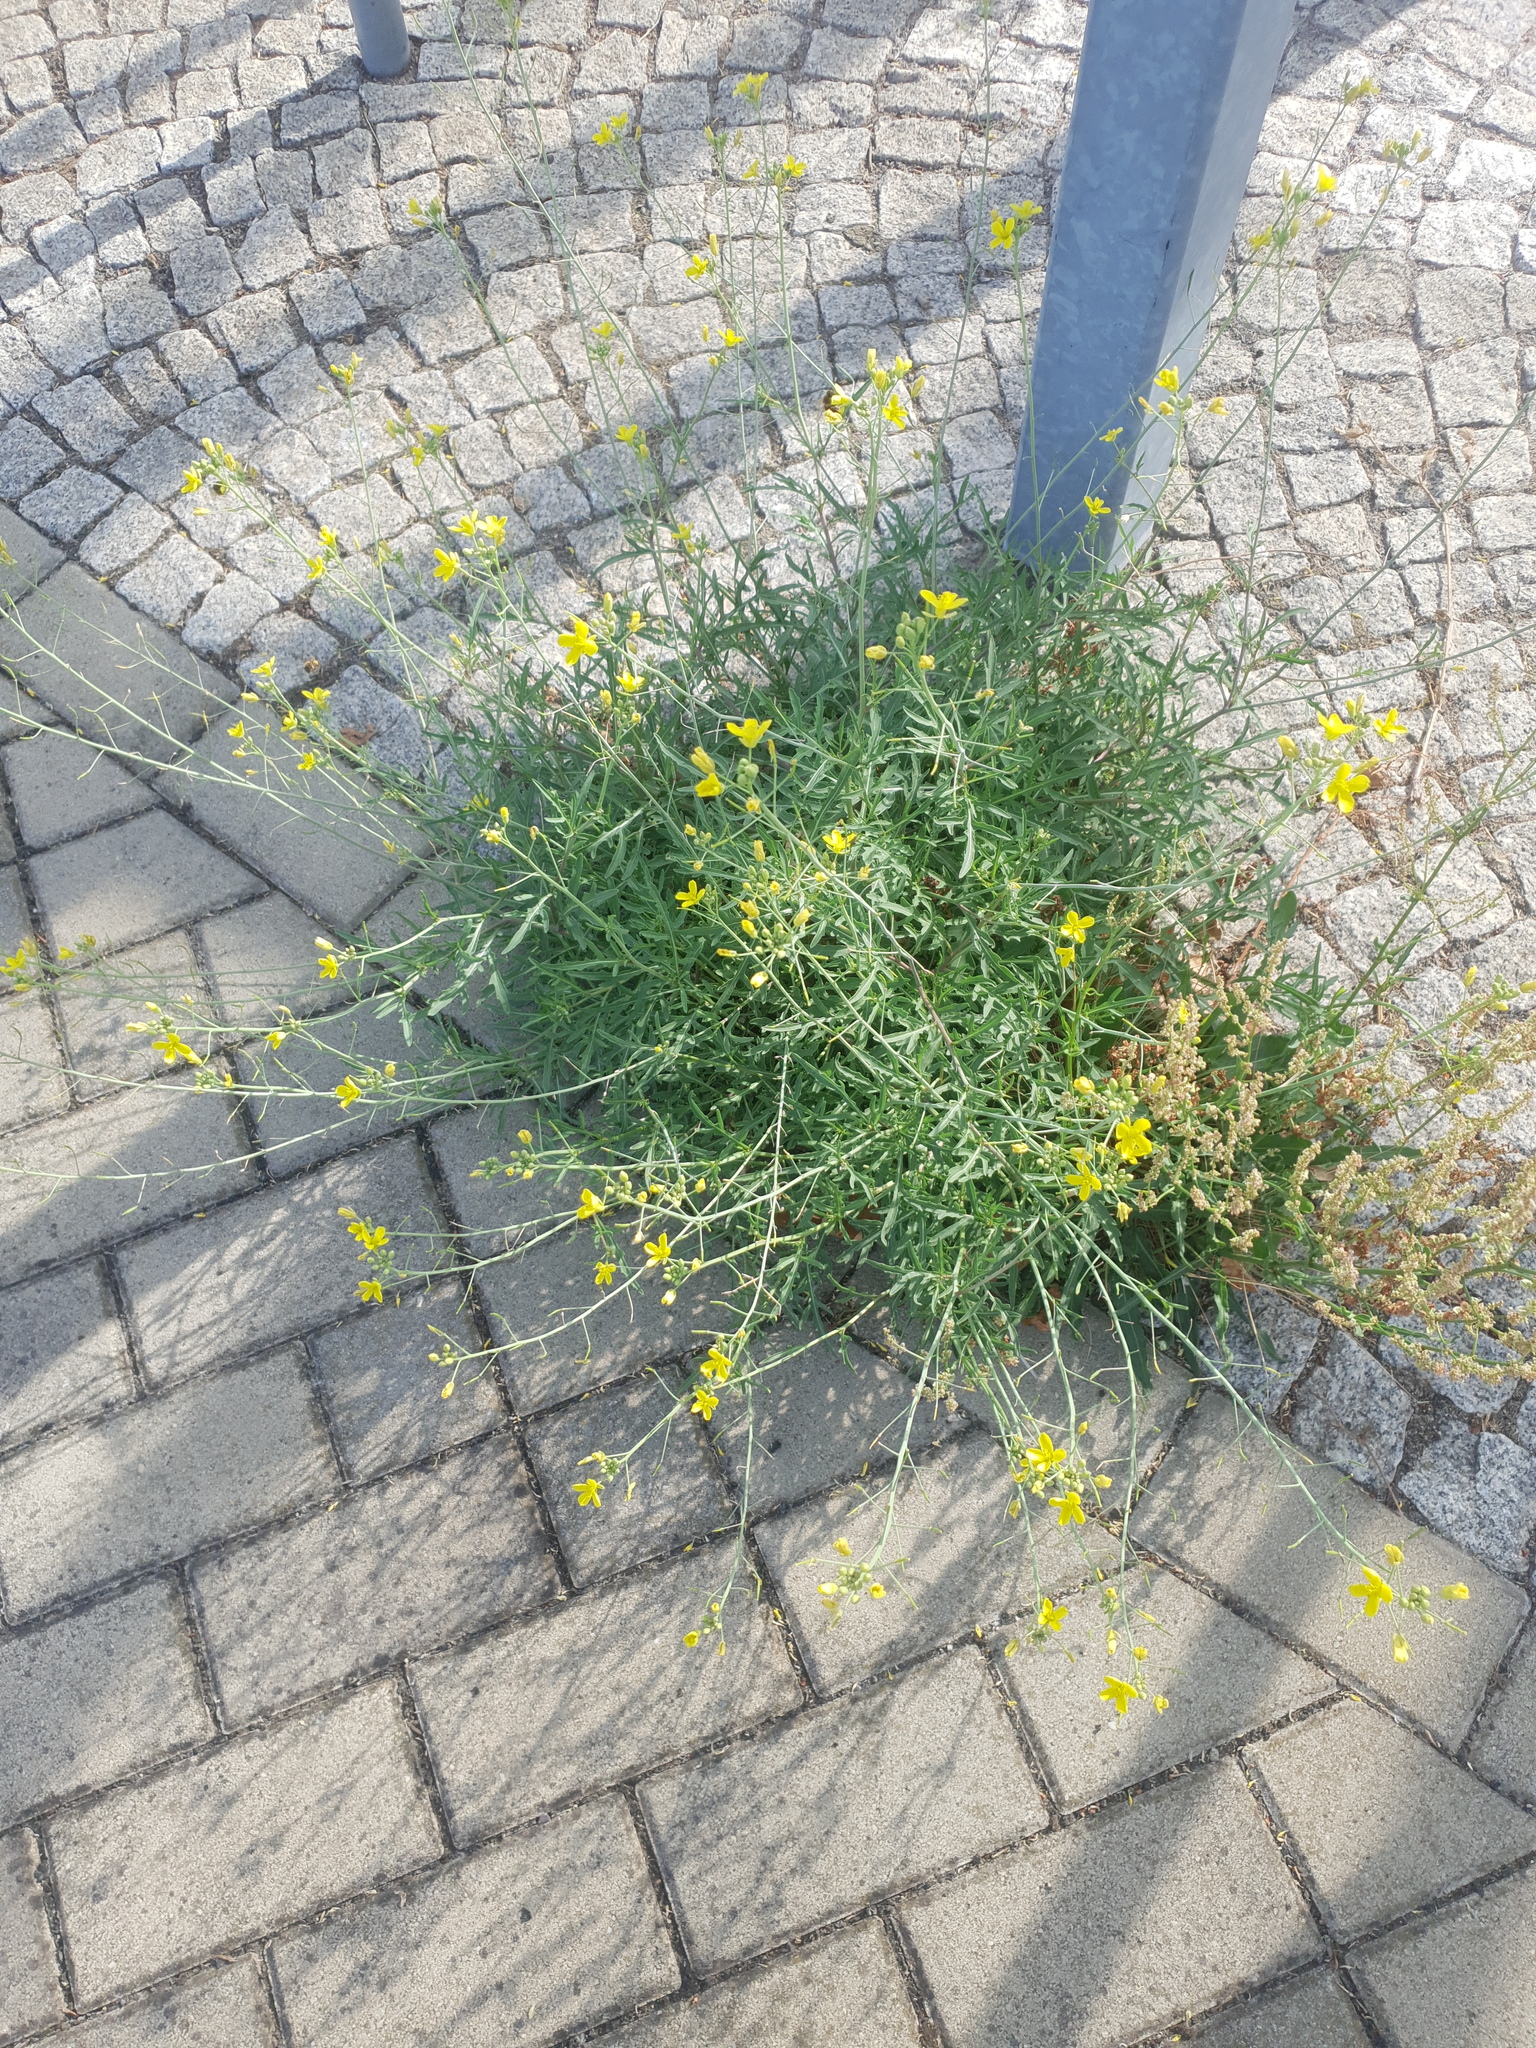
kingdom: Plantae
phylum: Tracheophyta
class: Magnoliopsida
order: Brassicales
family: Brassicaceae
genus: Diplotaxis
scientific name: Diplotaxis tenuifolia
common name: Perennial wall-rocket
